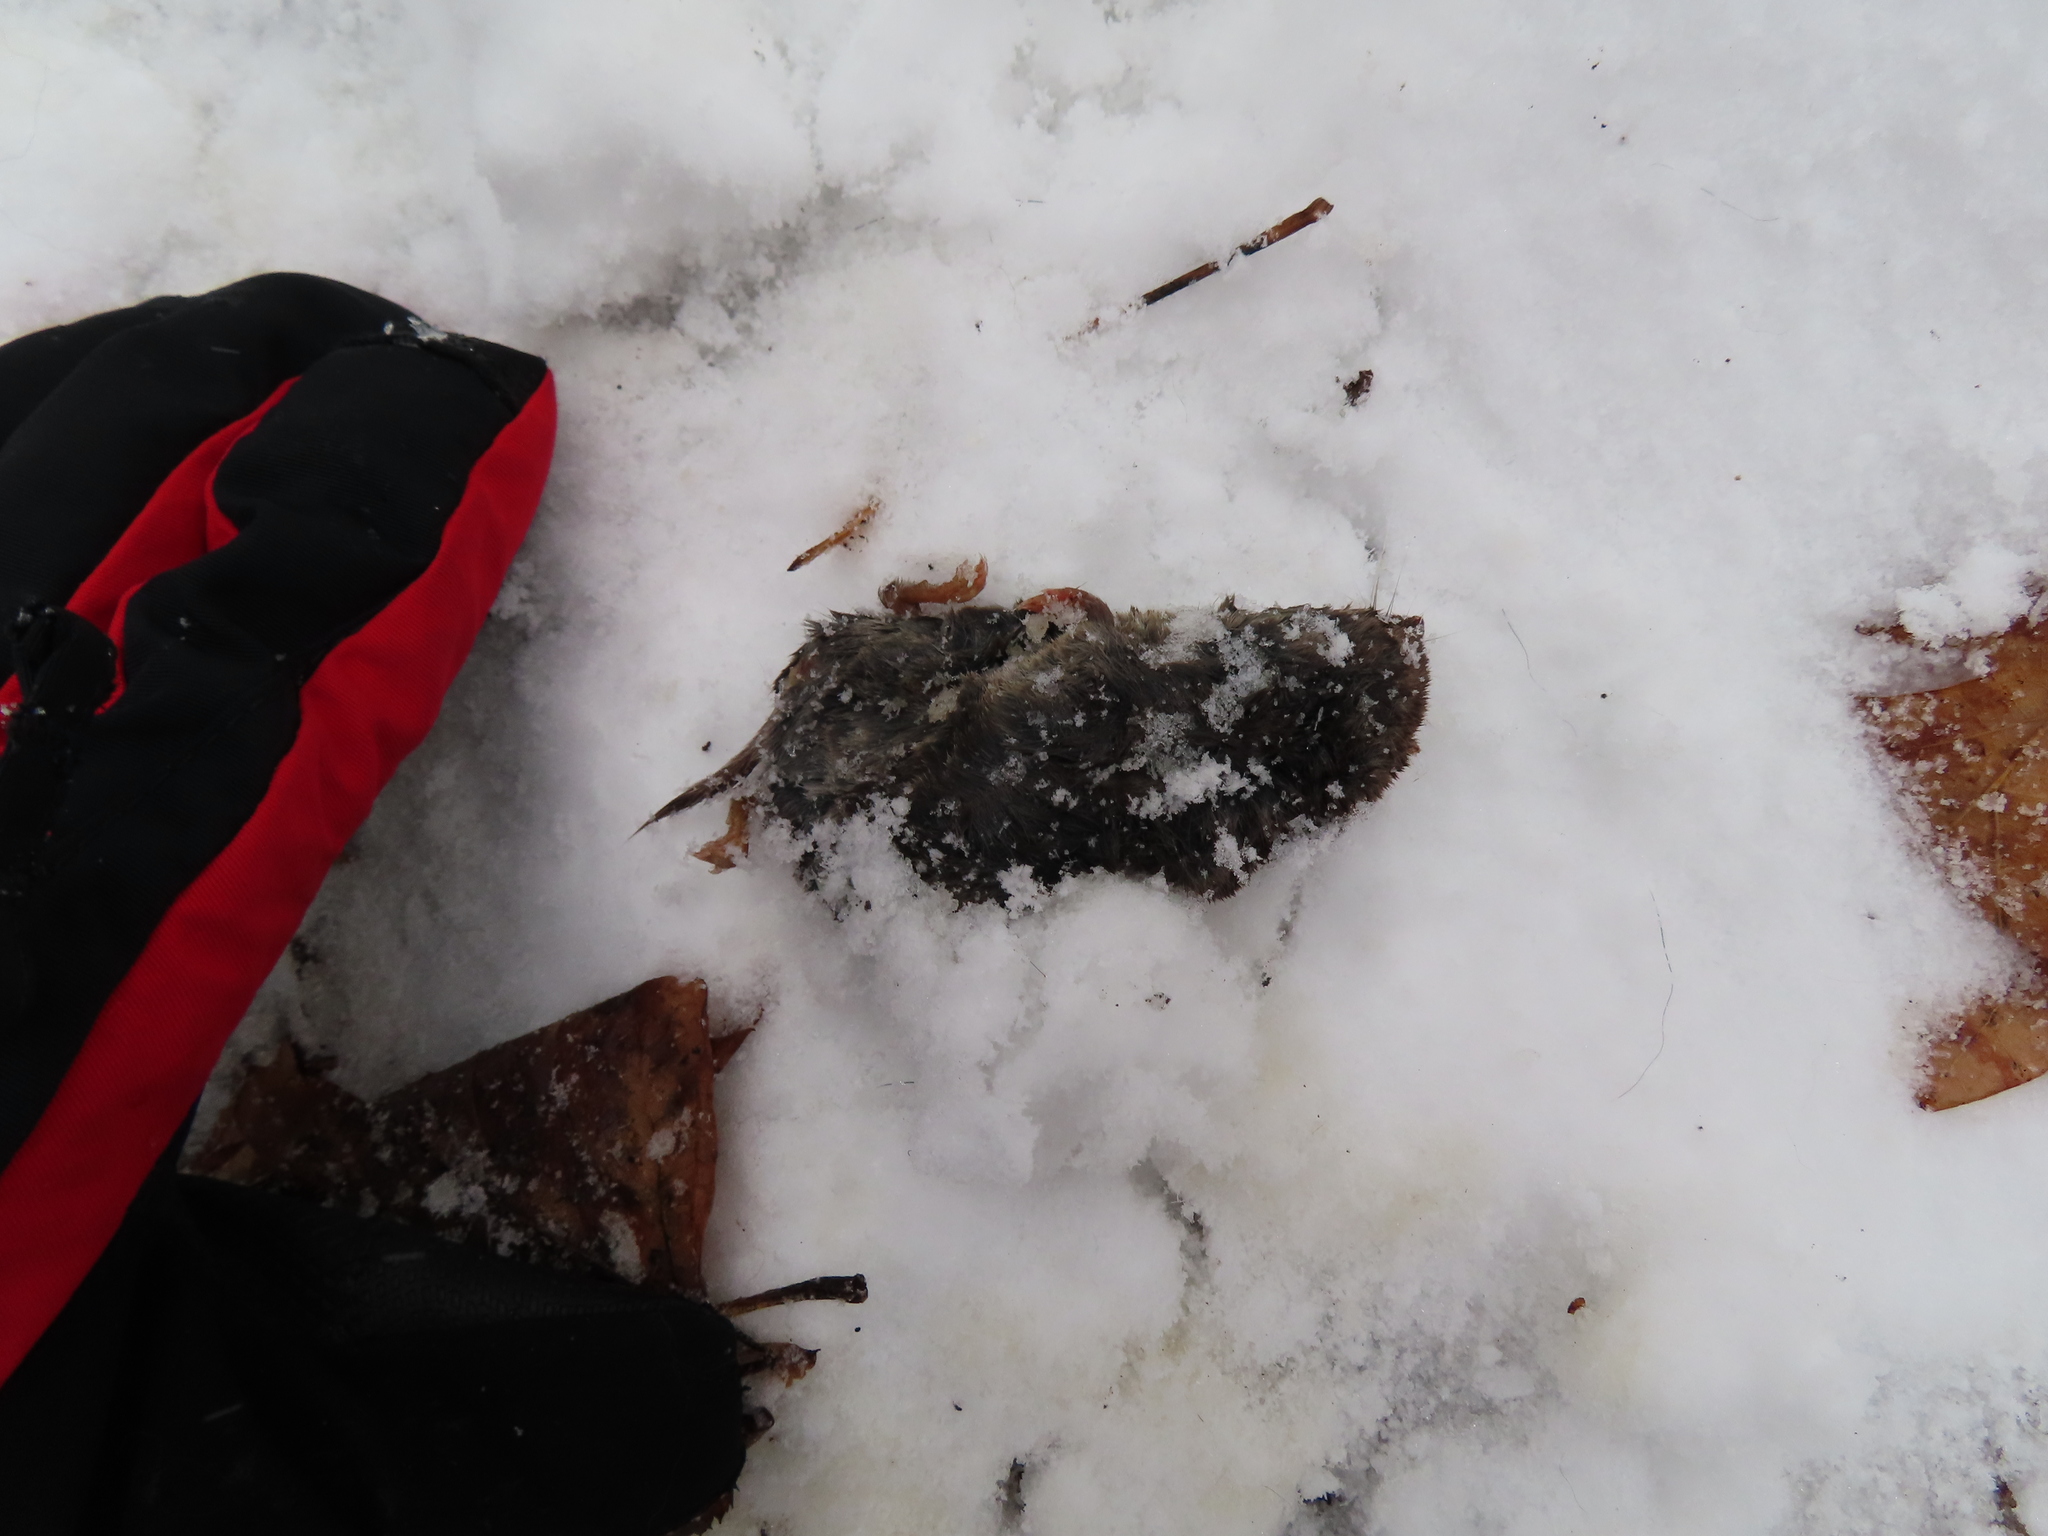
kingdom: Animalia
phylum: Chordata
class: Mammalia
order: Soricomorpha
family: Soricidae
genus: Blarina
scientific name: Blarina brevicauda
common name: Northern short-tailed shrew
